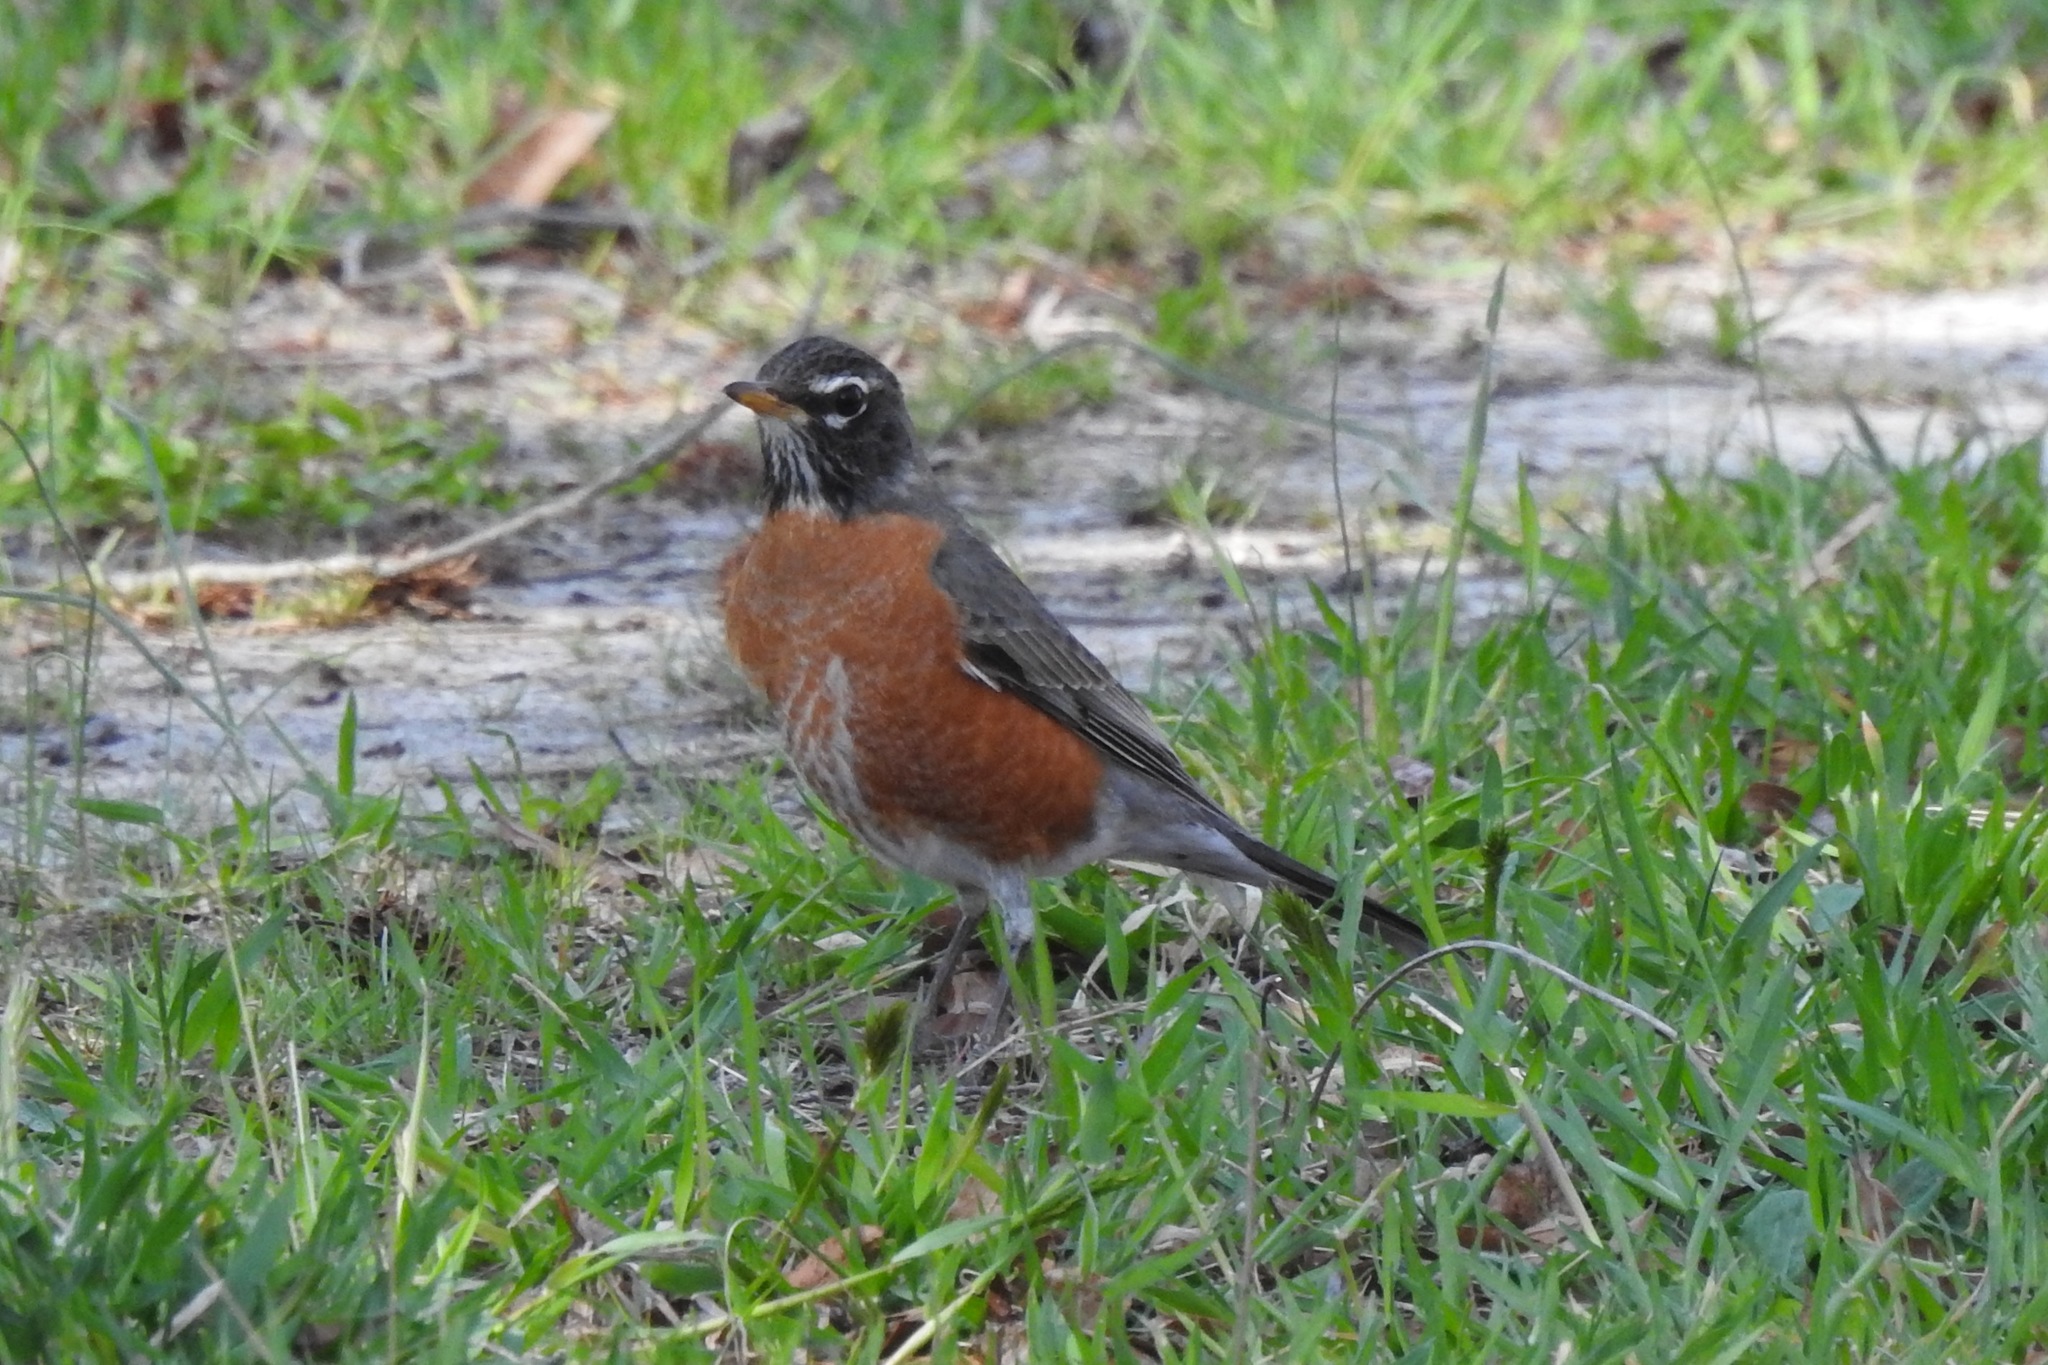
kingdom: Animalia
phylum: Chordata
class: Aves
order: Passeriformes
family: Turdidae
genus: Turdus
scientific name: Turdus migratorius
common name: American robin
